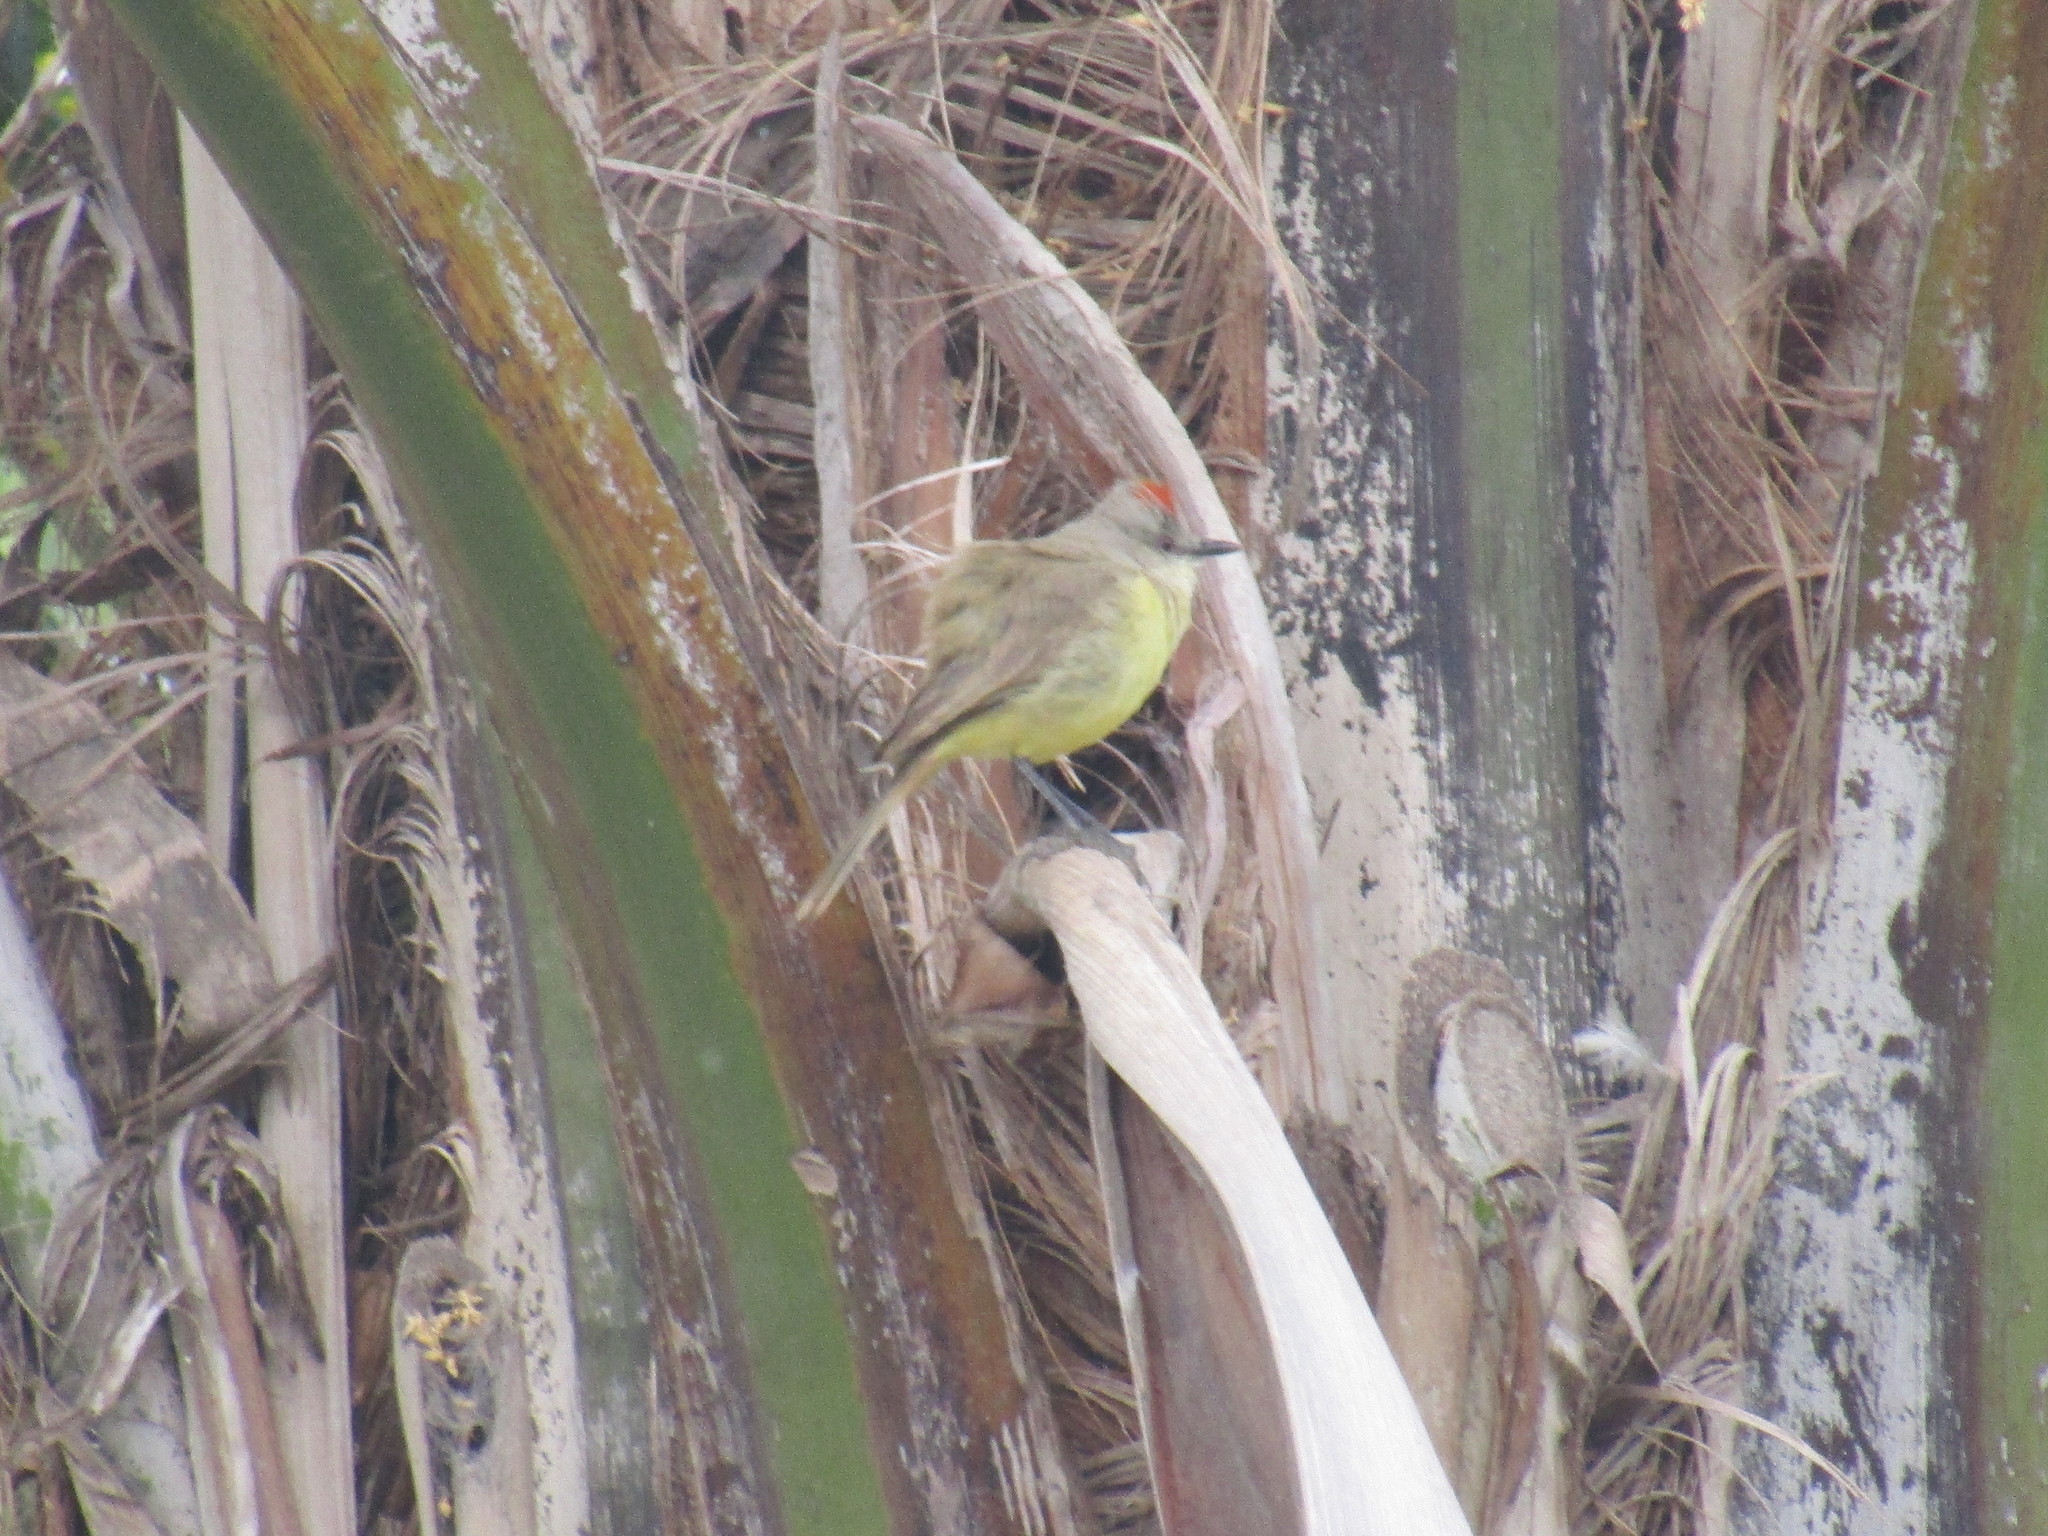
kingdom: Animalia
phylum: Chordata
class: Aves
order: Passeriformes
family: Tyrannidae
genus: Machetornis
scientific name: Machetornis rixosa
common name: Cattle tyrant
